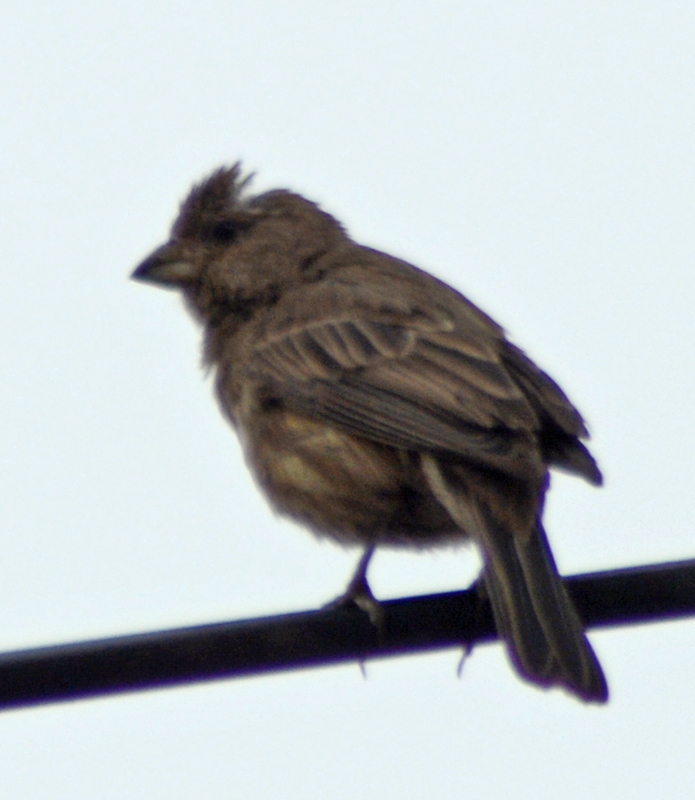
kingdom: Animalia
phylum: Chordata
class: Aves
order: Passeriformes
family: Fringillidae
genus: Haemorhous
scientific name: Haemorhous mexicanus
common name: House finch
